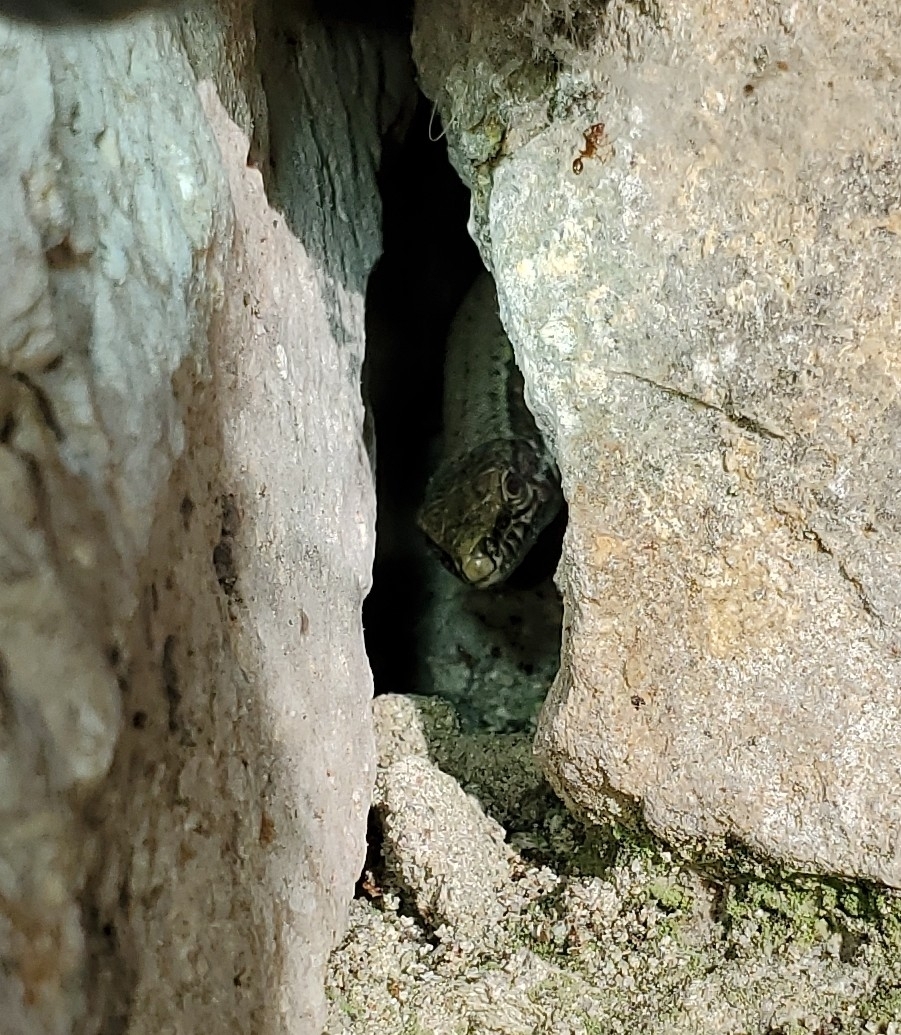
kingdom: Animalia
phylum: Chordata
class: Squamata
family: Lacertidae
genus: Podarcis
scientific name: Podarcis muralis
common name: Common wall lizard
